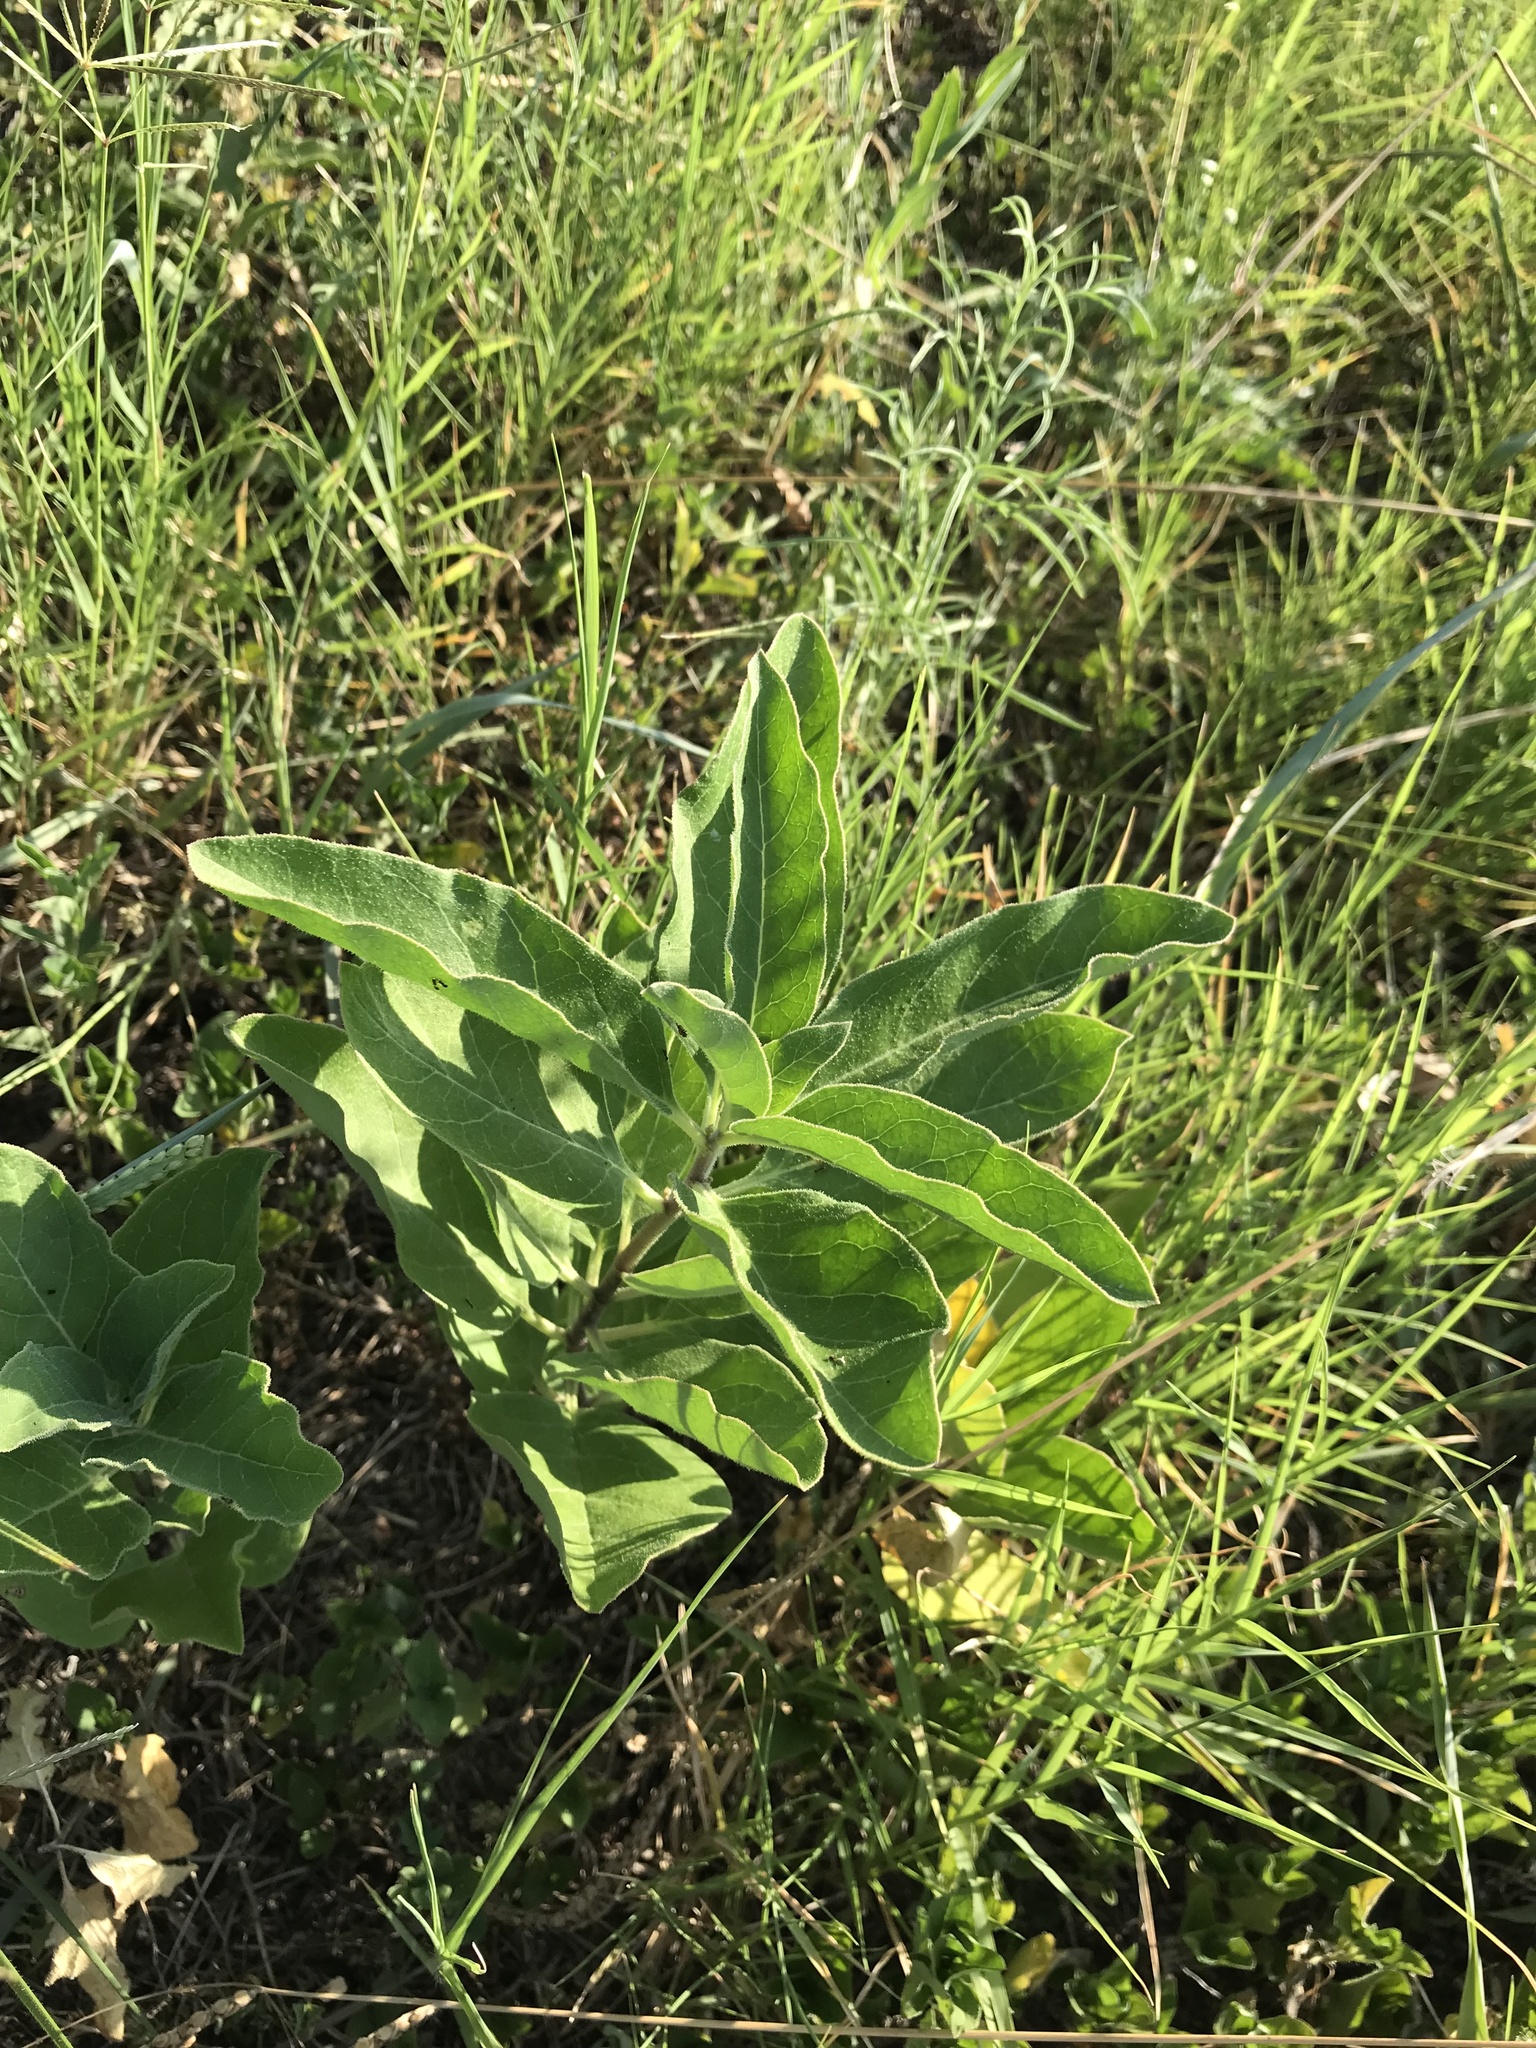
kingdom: Plantae
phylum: Tracheophyta
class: Magnoliopsida
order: Gentianales
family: Apocynaceae
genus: Asclepias
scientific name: Asclepias oenotheroides
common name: Zizotes milkweed
